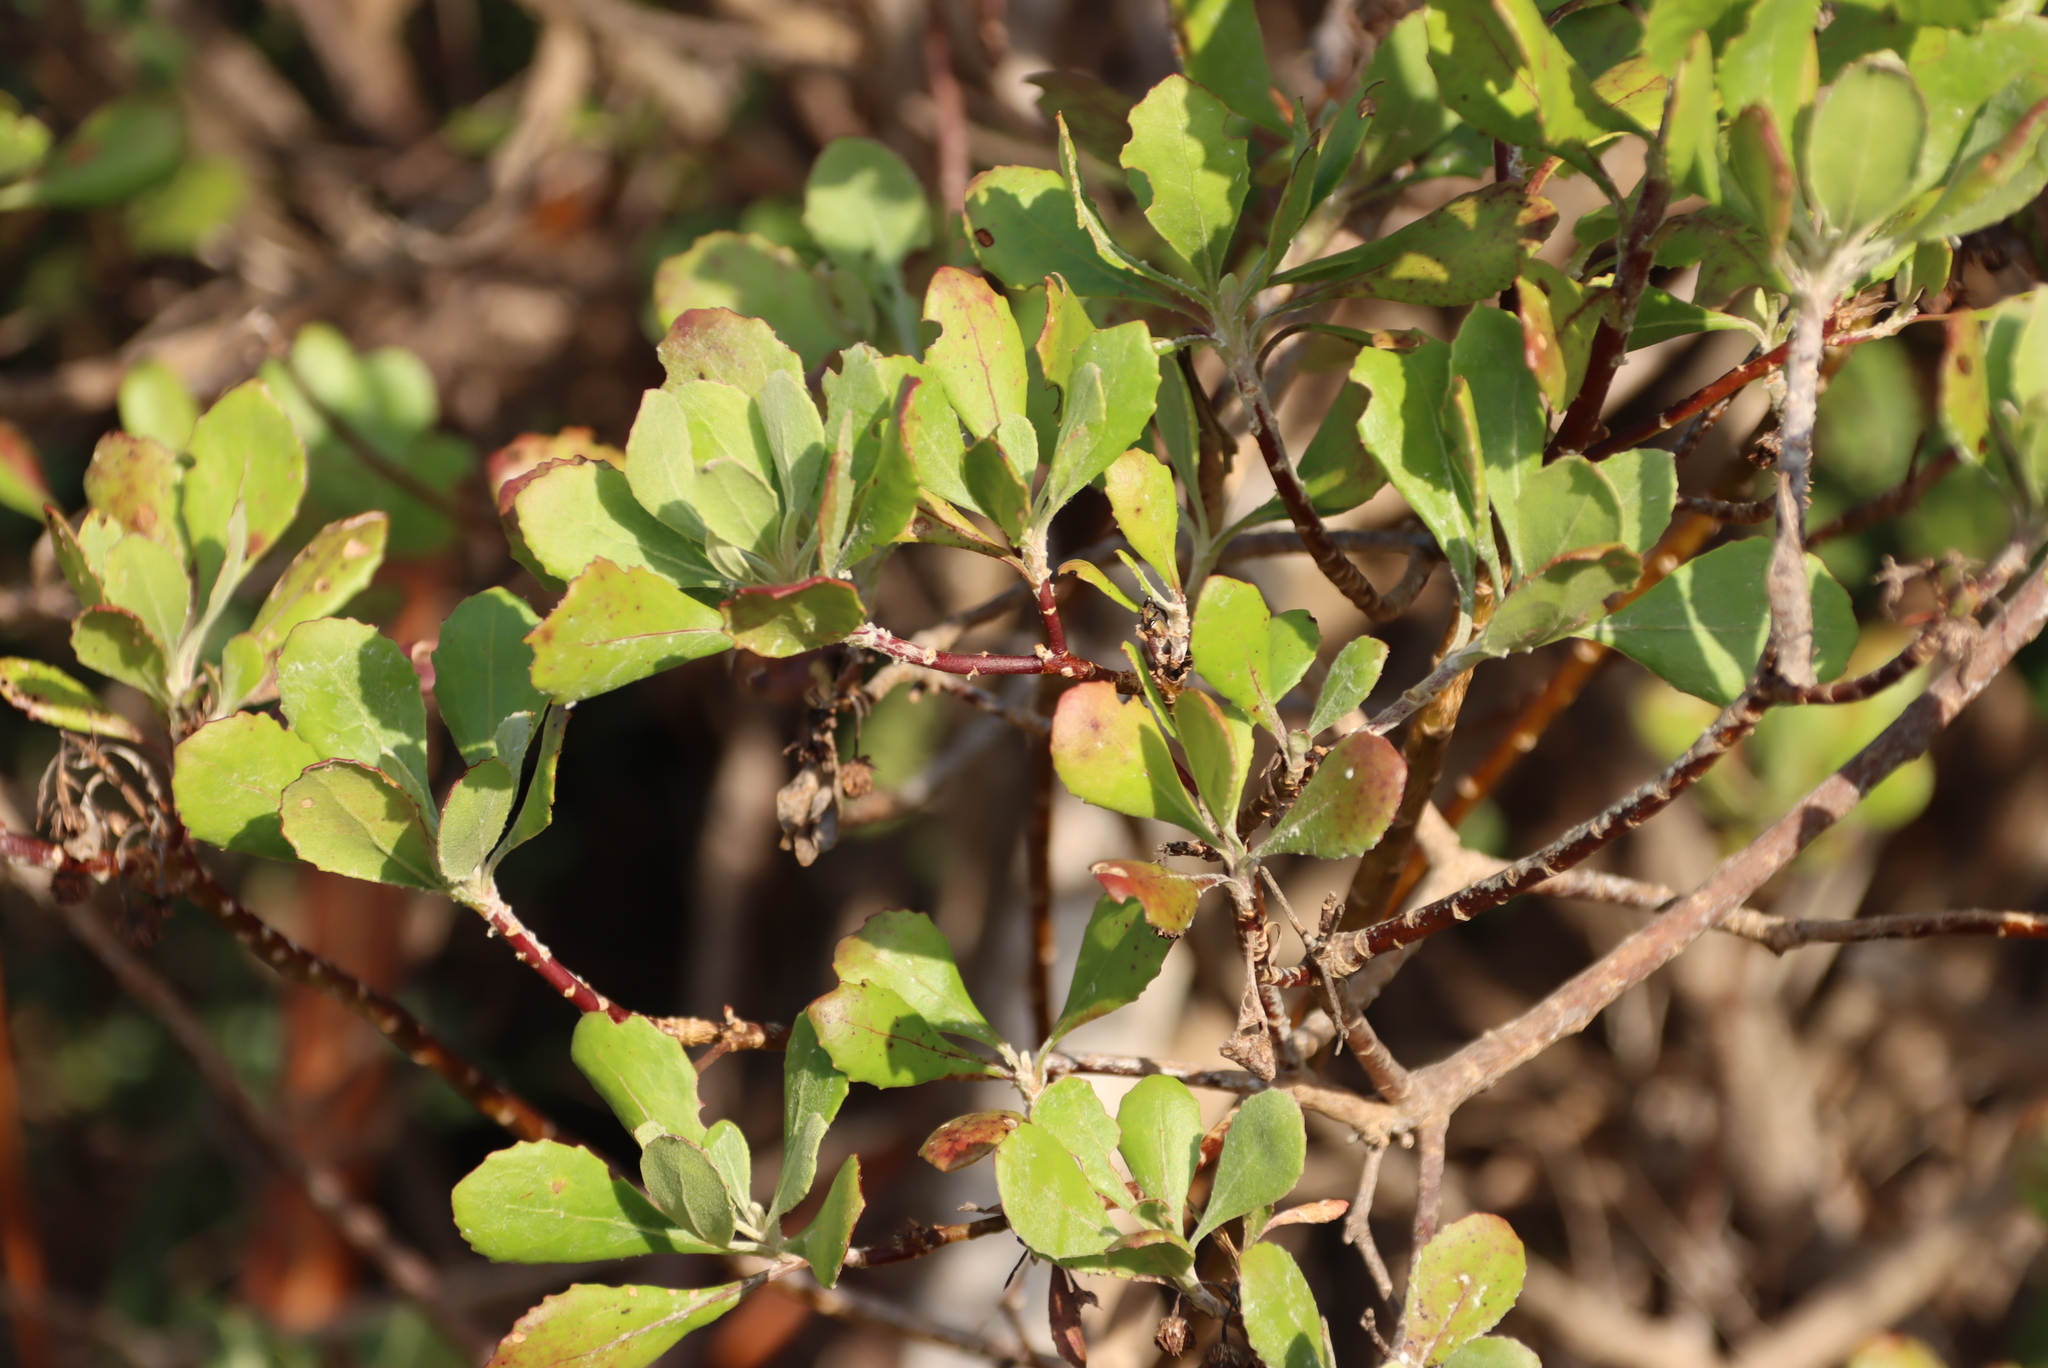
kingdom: Plantae
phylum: Tracheophyta
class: Magnoliopsida
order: Asterales
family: Asteraceae
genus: Osteospermum
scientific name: Osteospermum moniliferum
